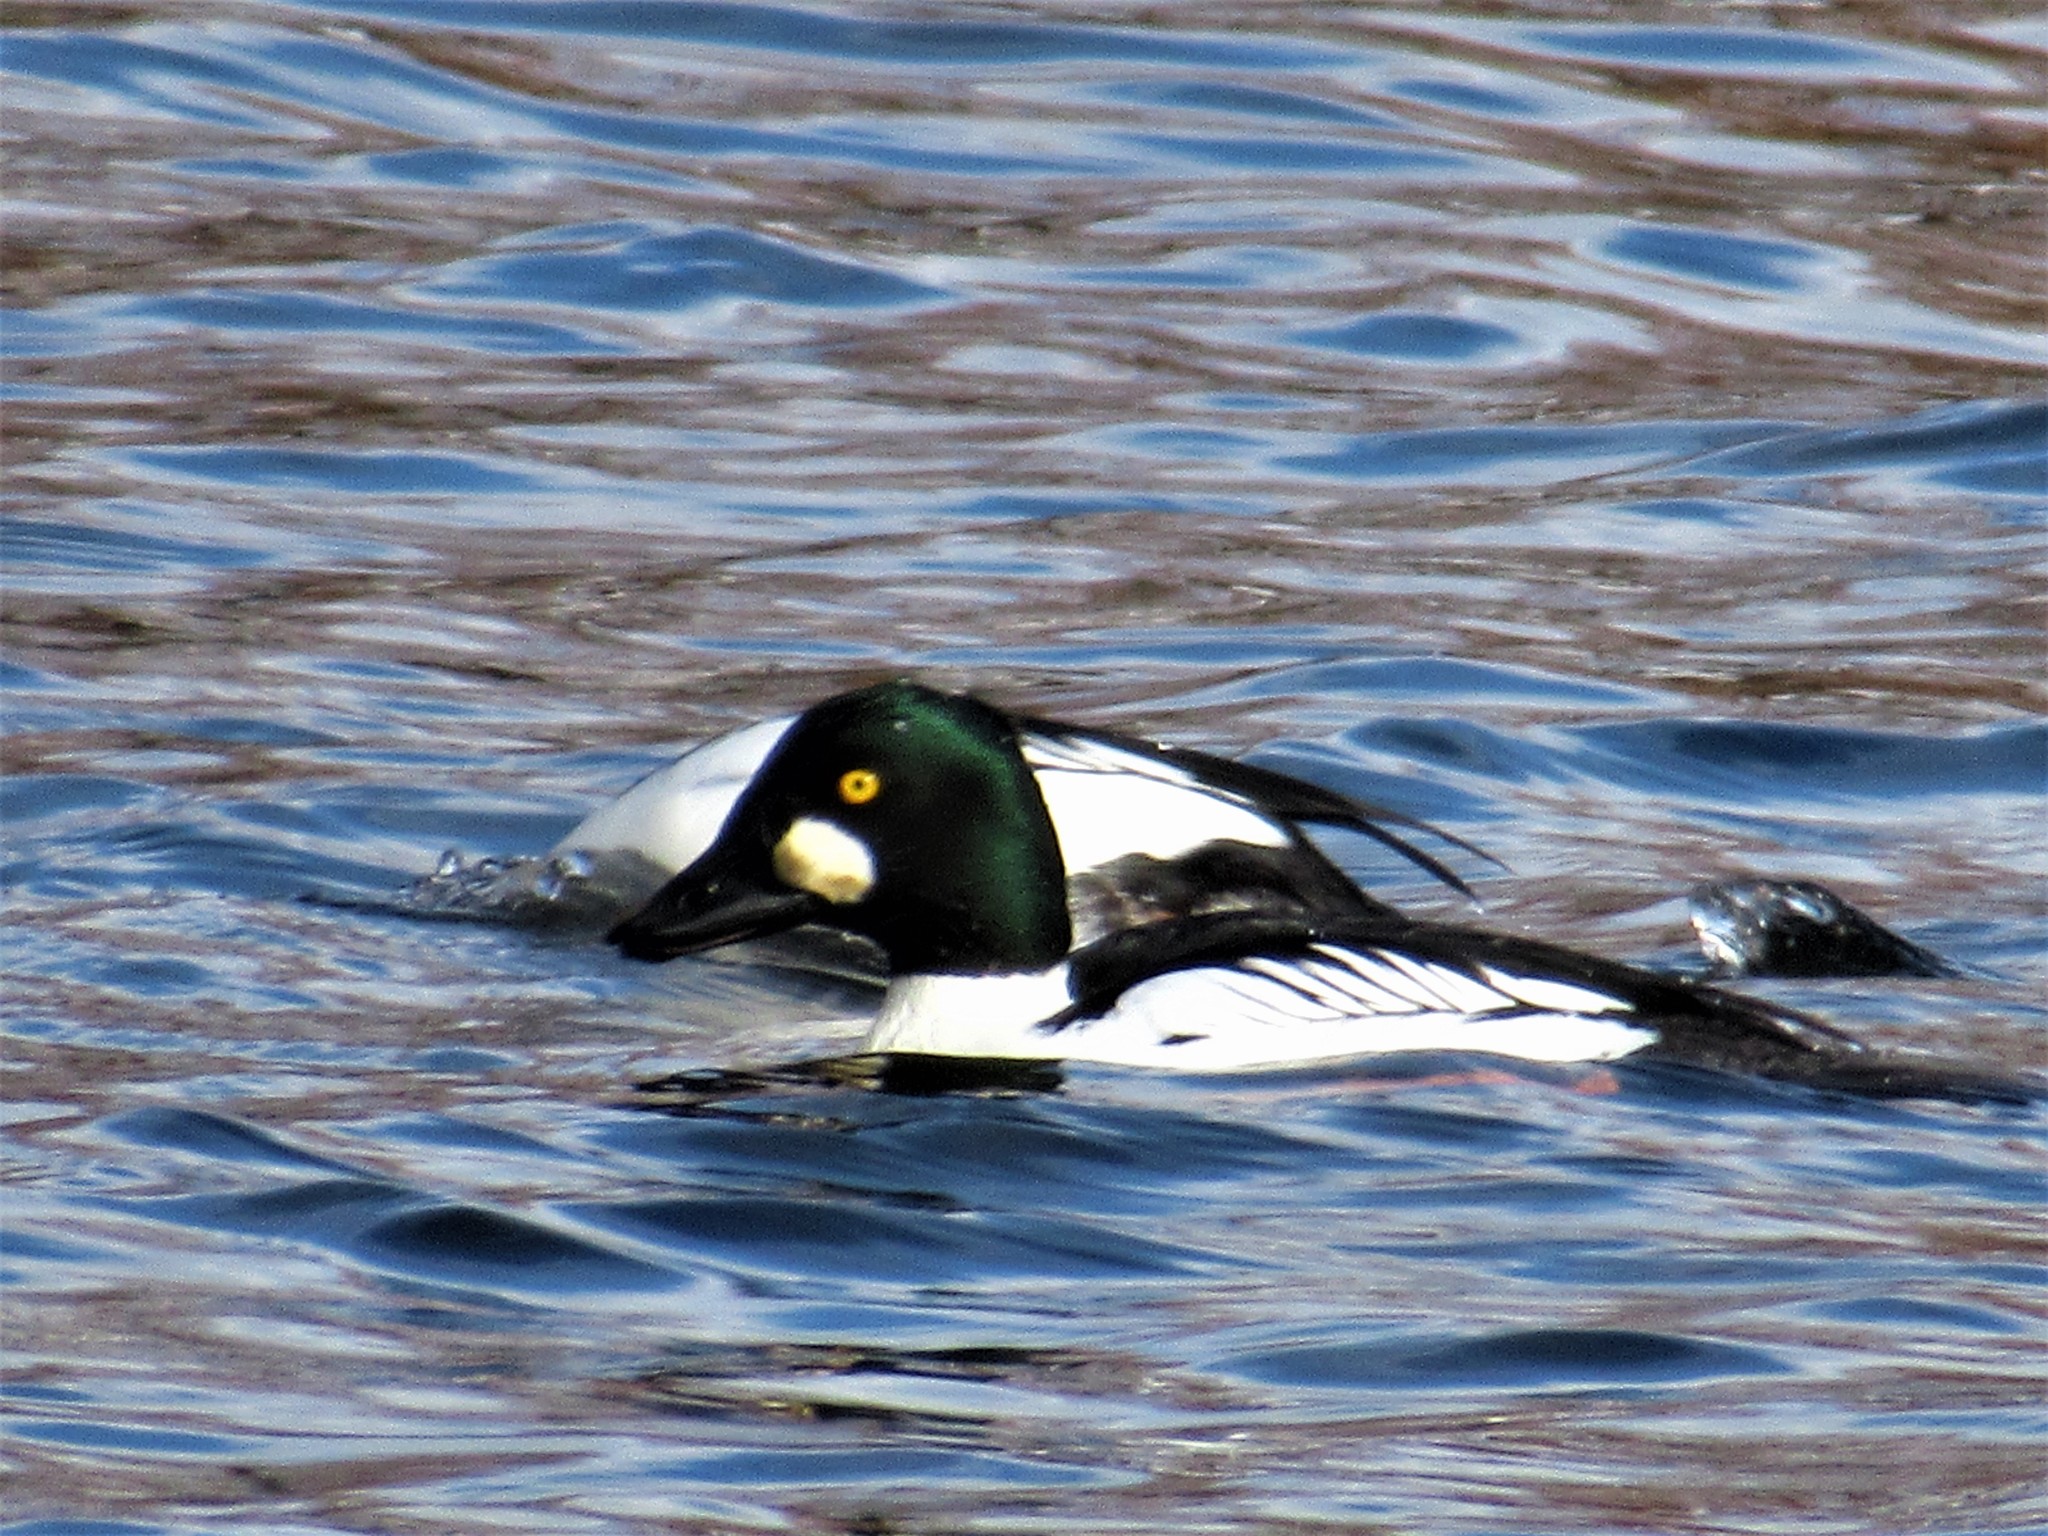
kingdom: Animalia
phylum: Chordata
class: Aves
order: Anseriformes
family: Anatidae
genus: Bucephala
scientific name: Bucephala clangula
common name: Common goldeneye
